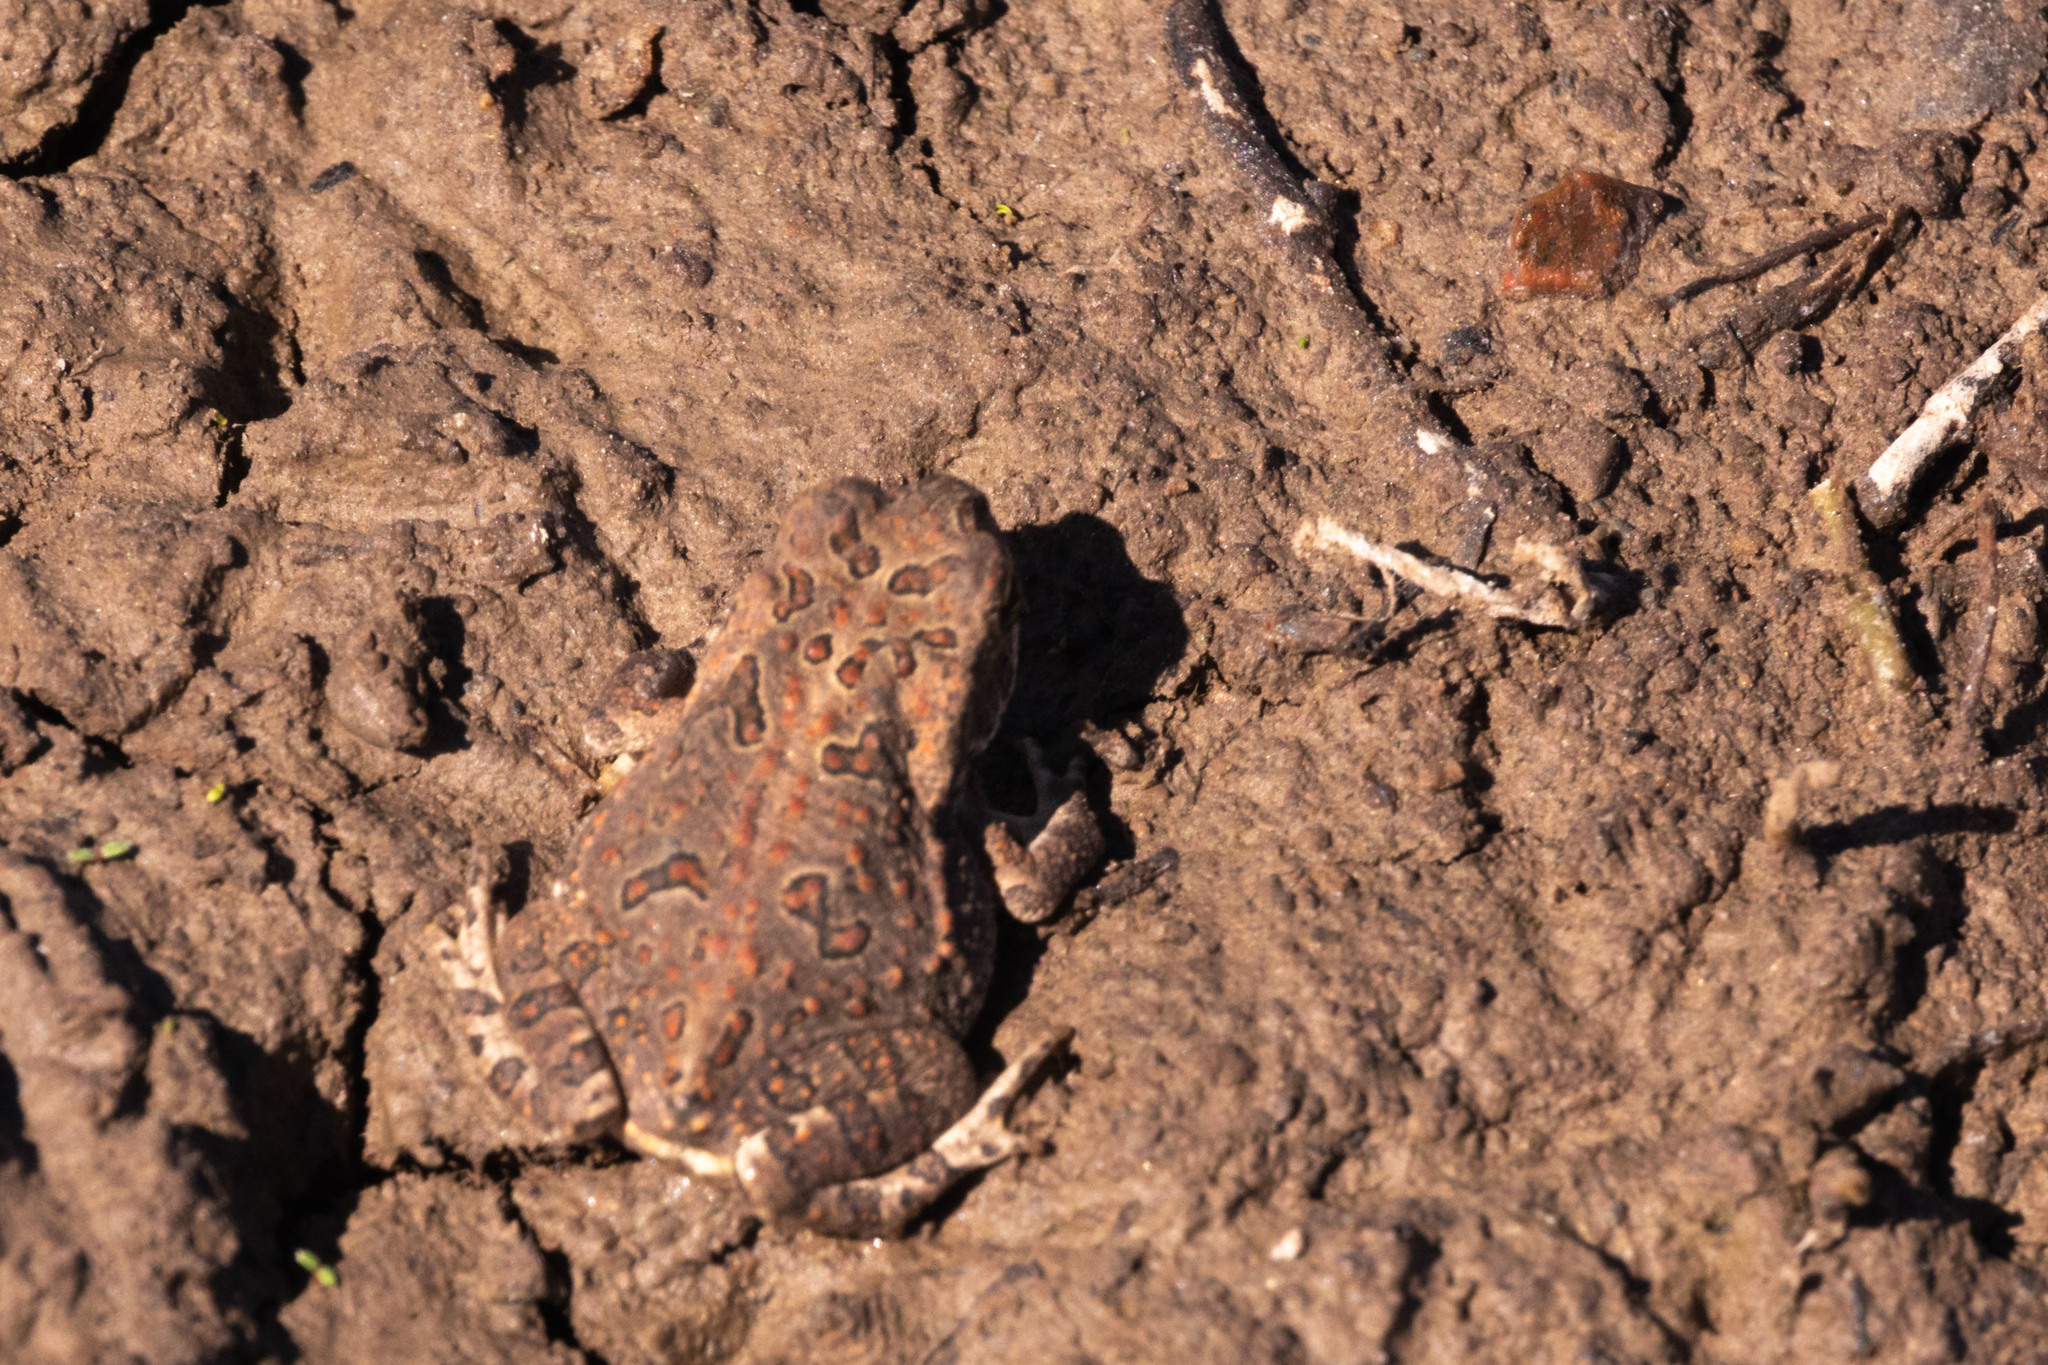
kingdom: Animalia
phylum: Chordata
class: Amphibia
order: Anura
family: Bufonidae
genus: Rhinella
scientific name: Rhinella arenarum
